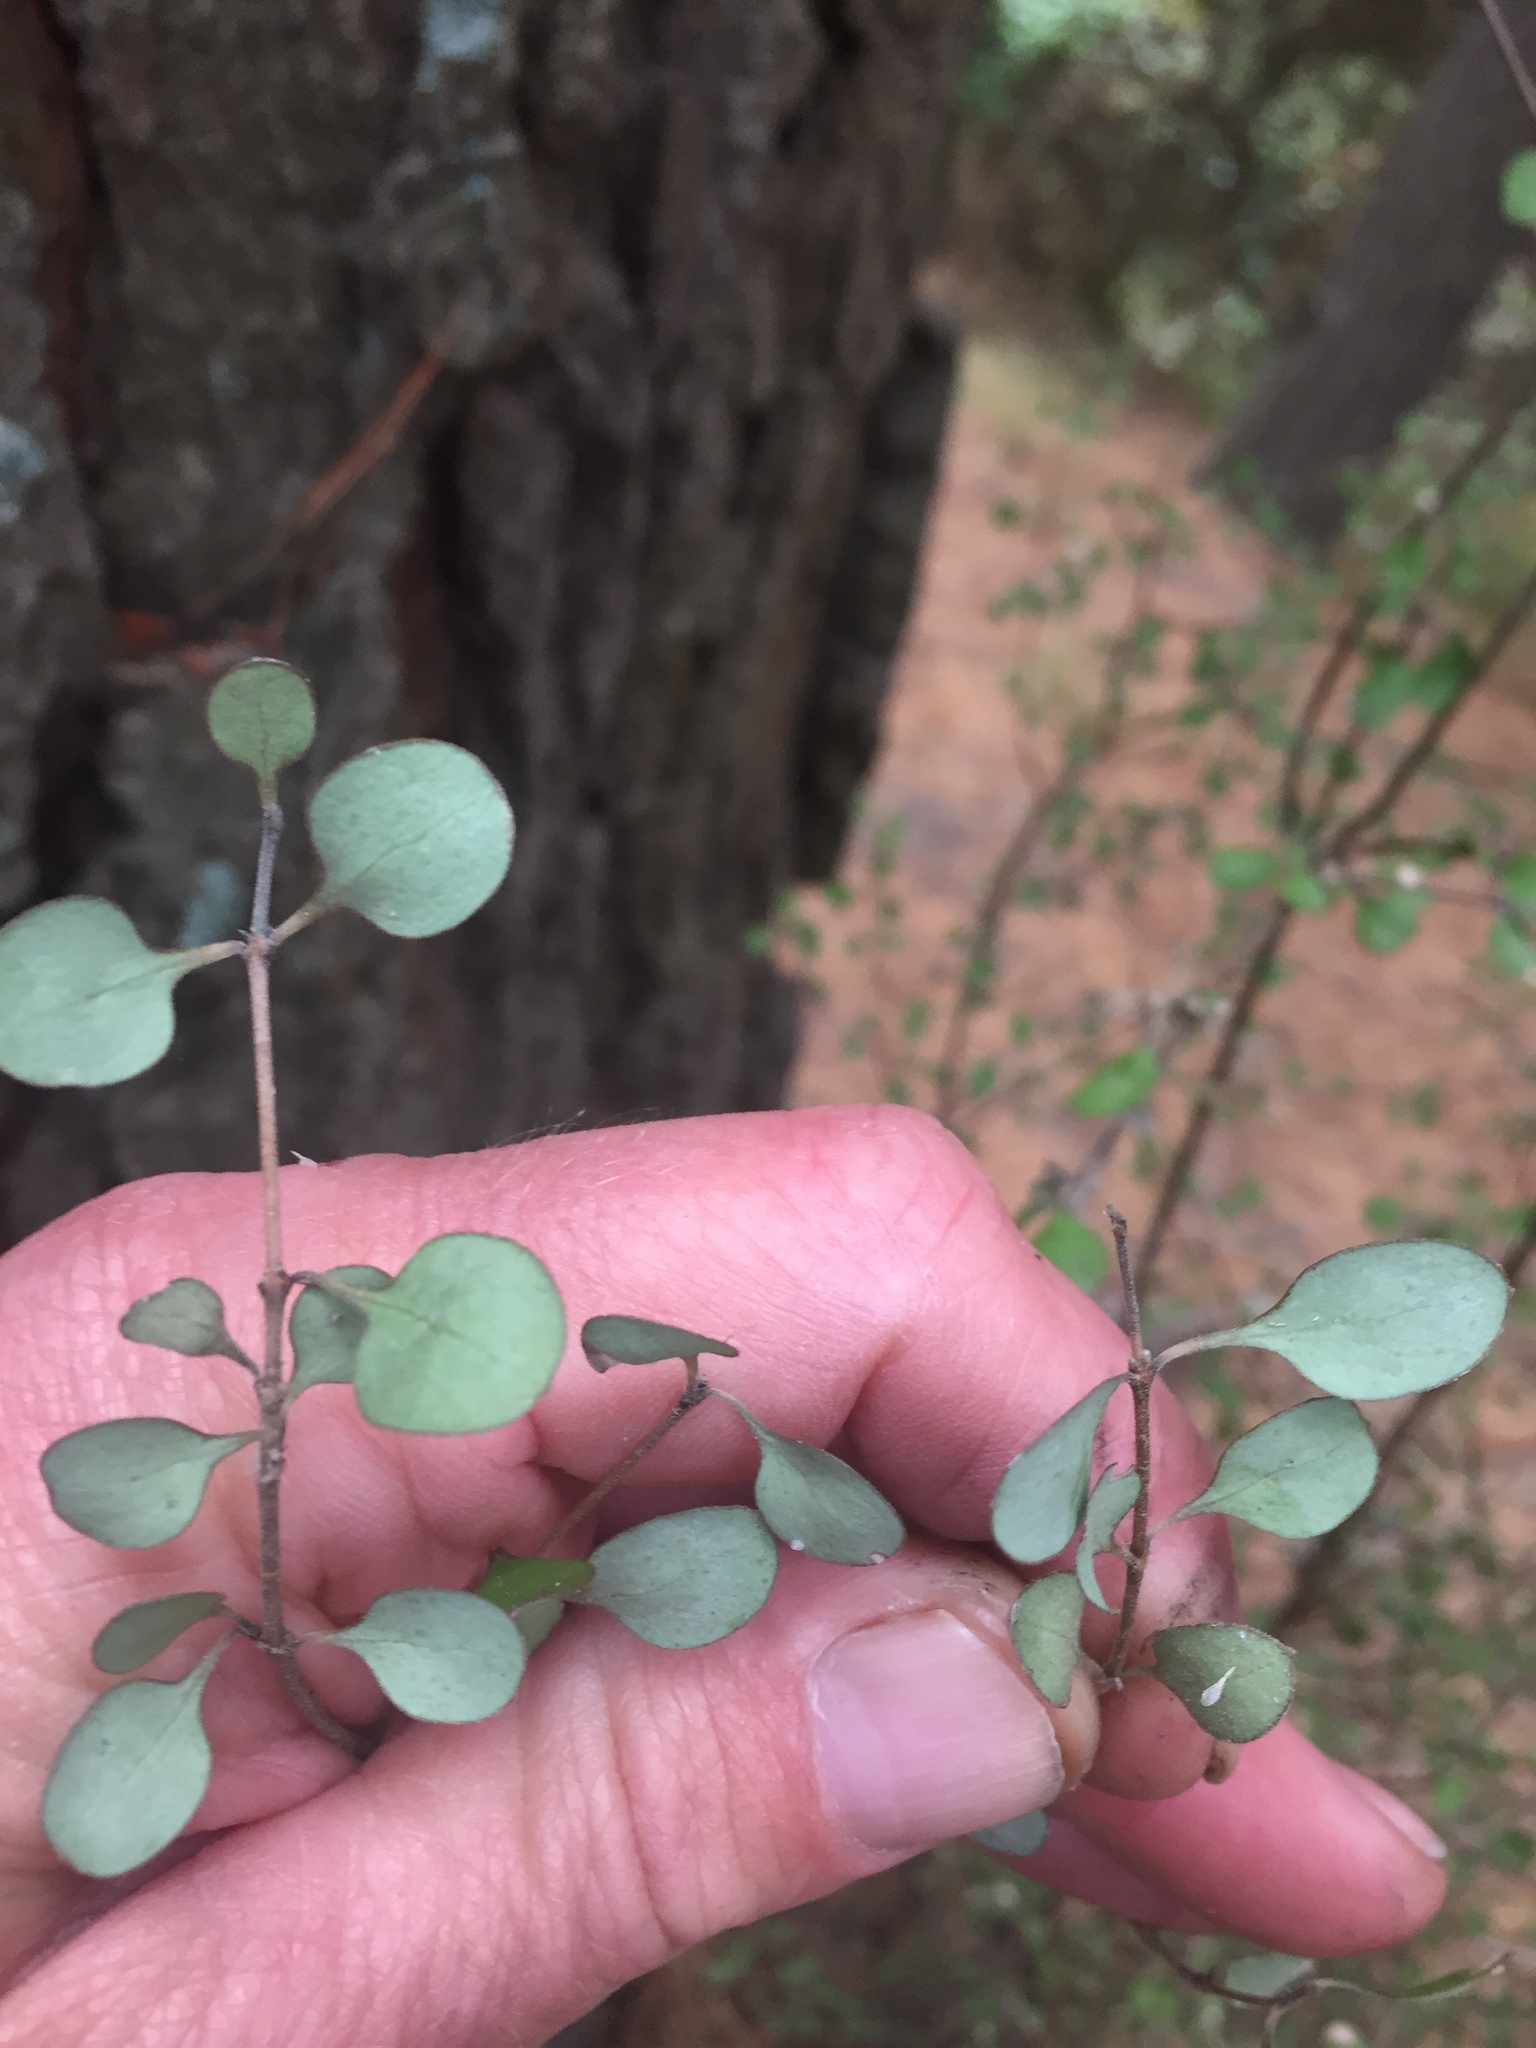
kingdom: Plantae
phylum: Tracheophyta
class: Magnoliopsida
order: Gentianales
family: Rubiaceae
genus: Coprosma
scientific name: Coprosma crassifolia
